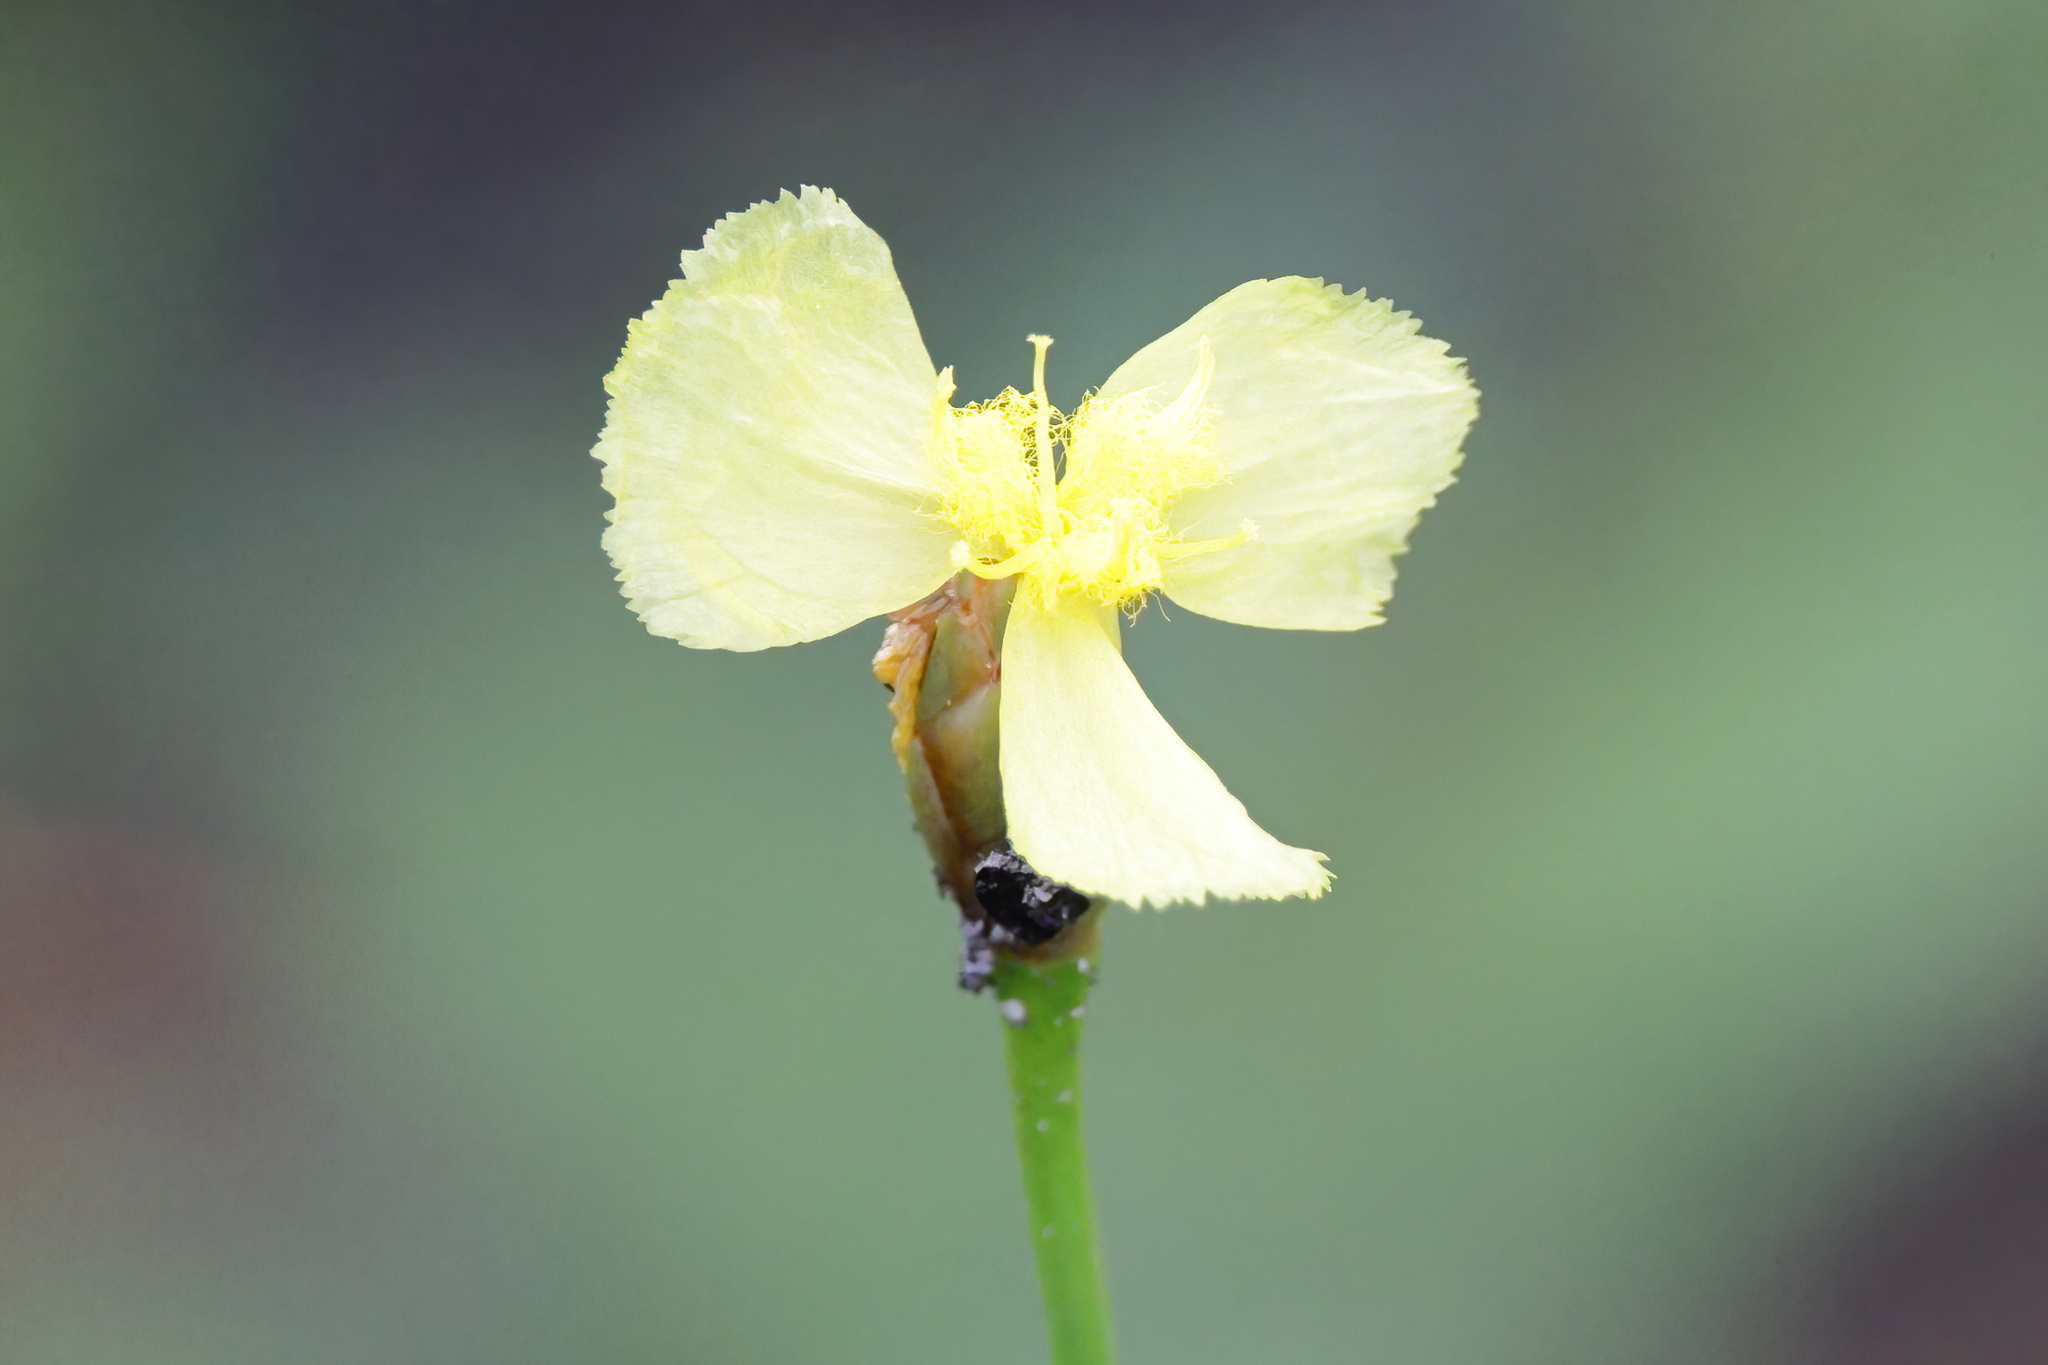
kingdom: Plantae
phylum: Tracheophyta
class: Liliopsida
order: Poales
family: Xyridaceae
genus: Xyris
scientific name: Xyris caroliniana
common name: Carolina yellow-eyed-grass
